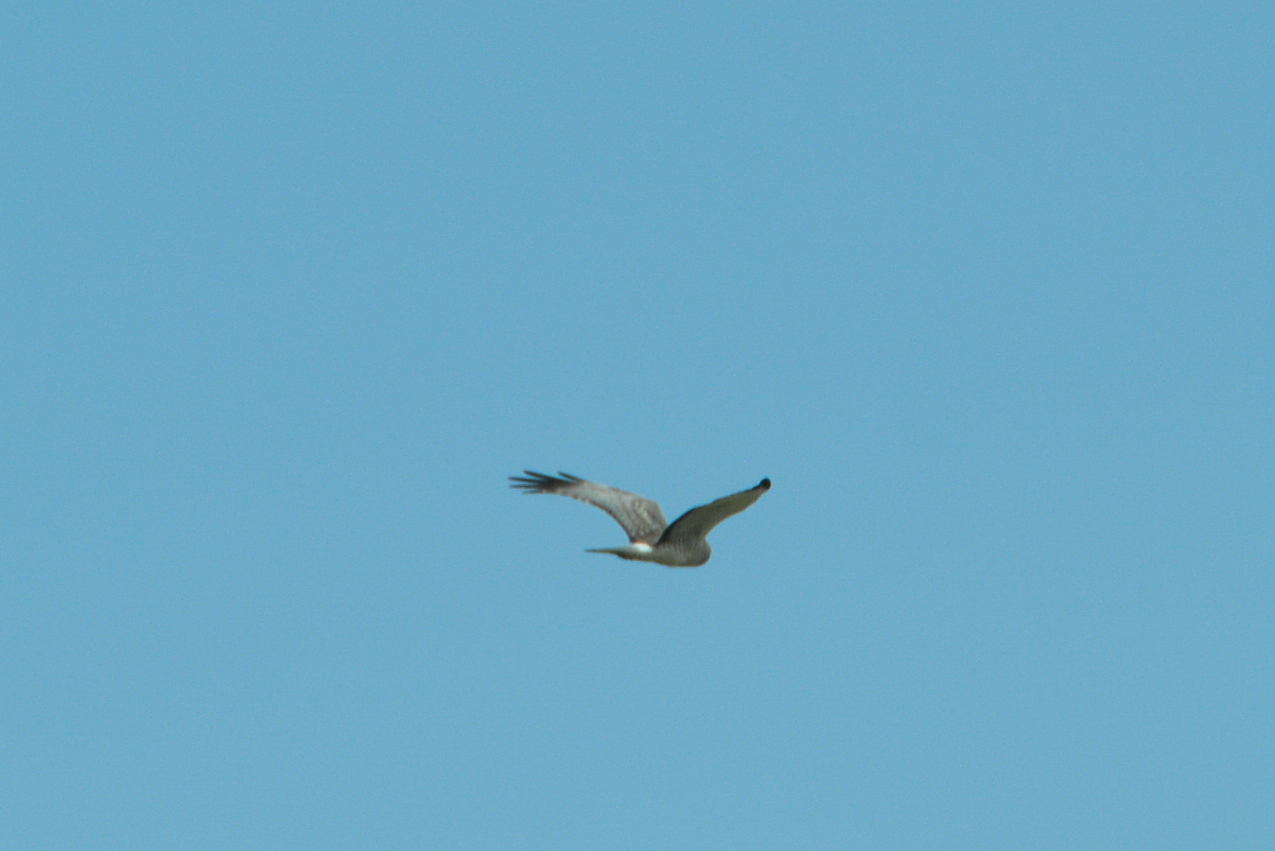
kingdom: Animalia
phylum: Chordata
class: Aves
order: Accipitriformes
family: Accipitridae
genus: Circus
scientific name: Circus cyaneus
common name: Hen harrier
